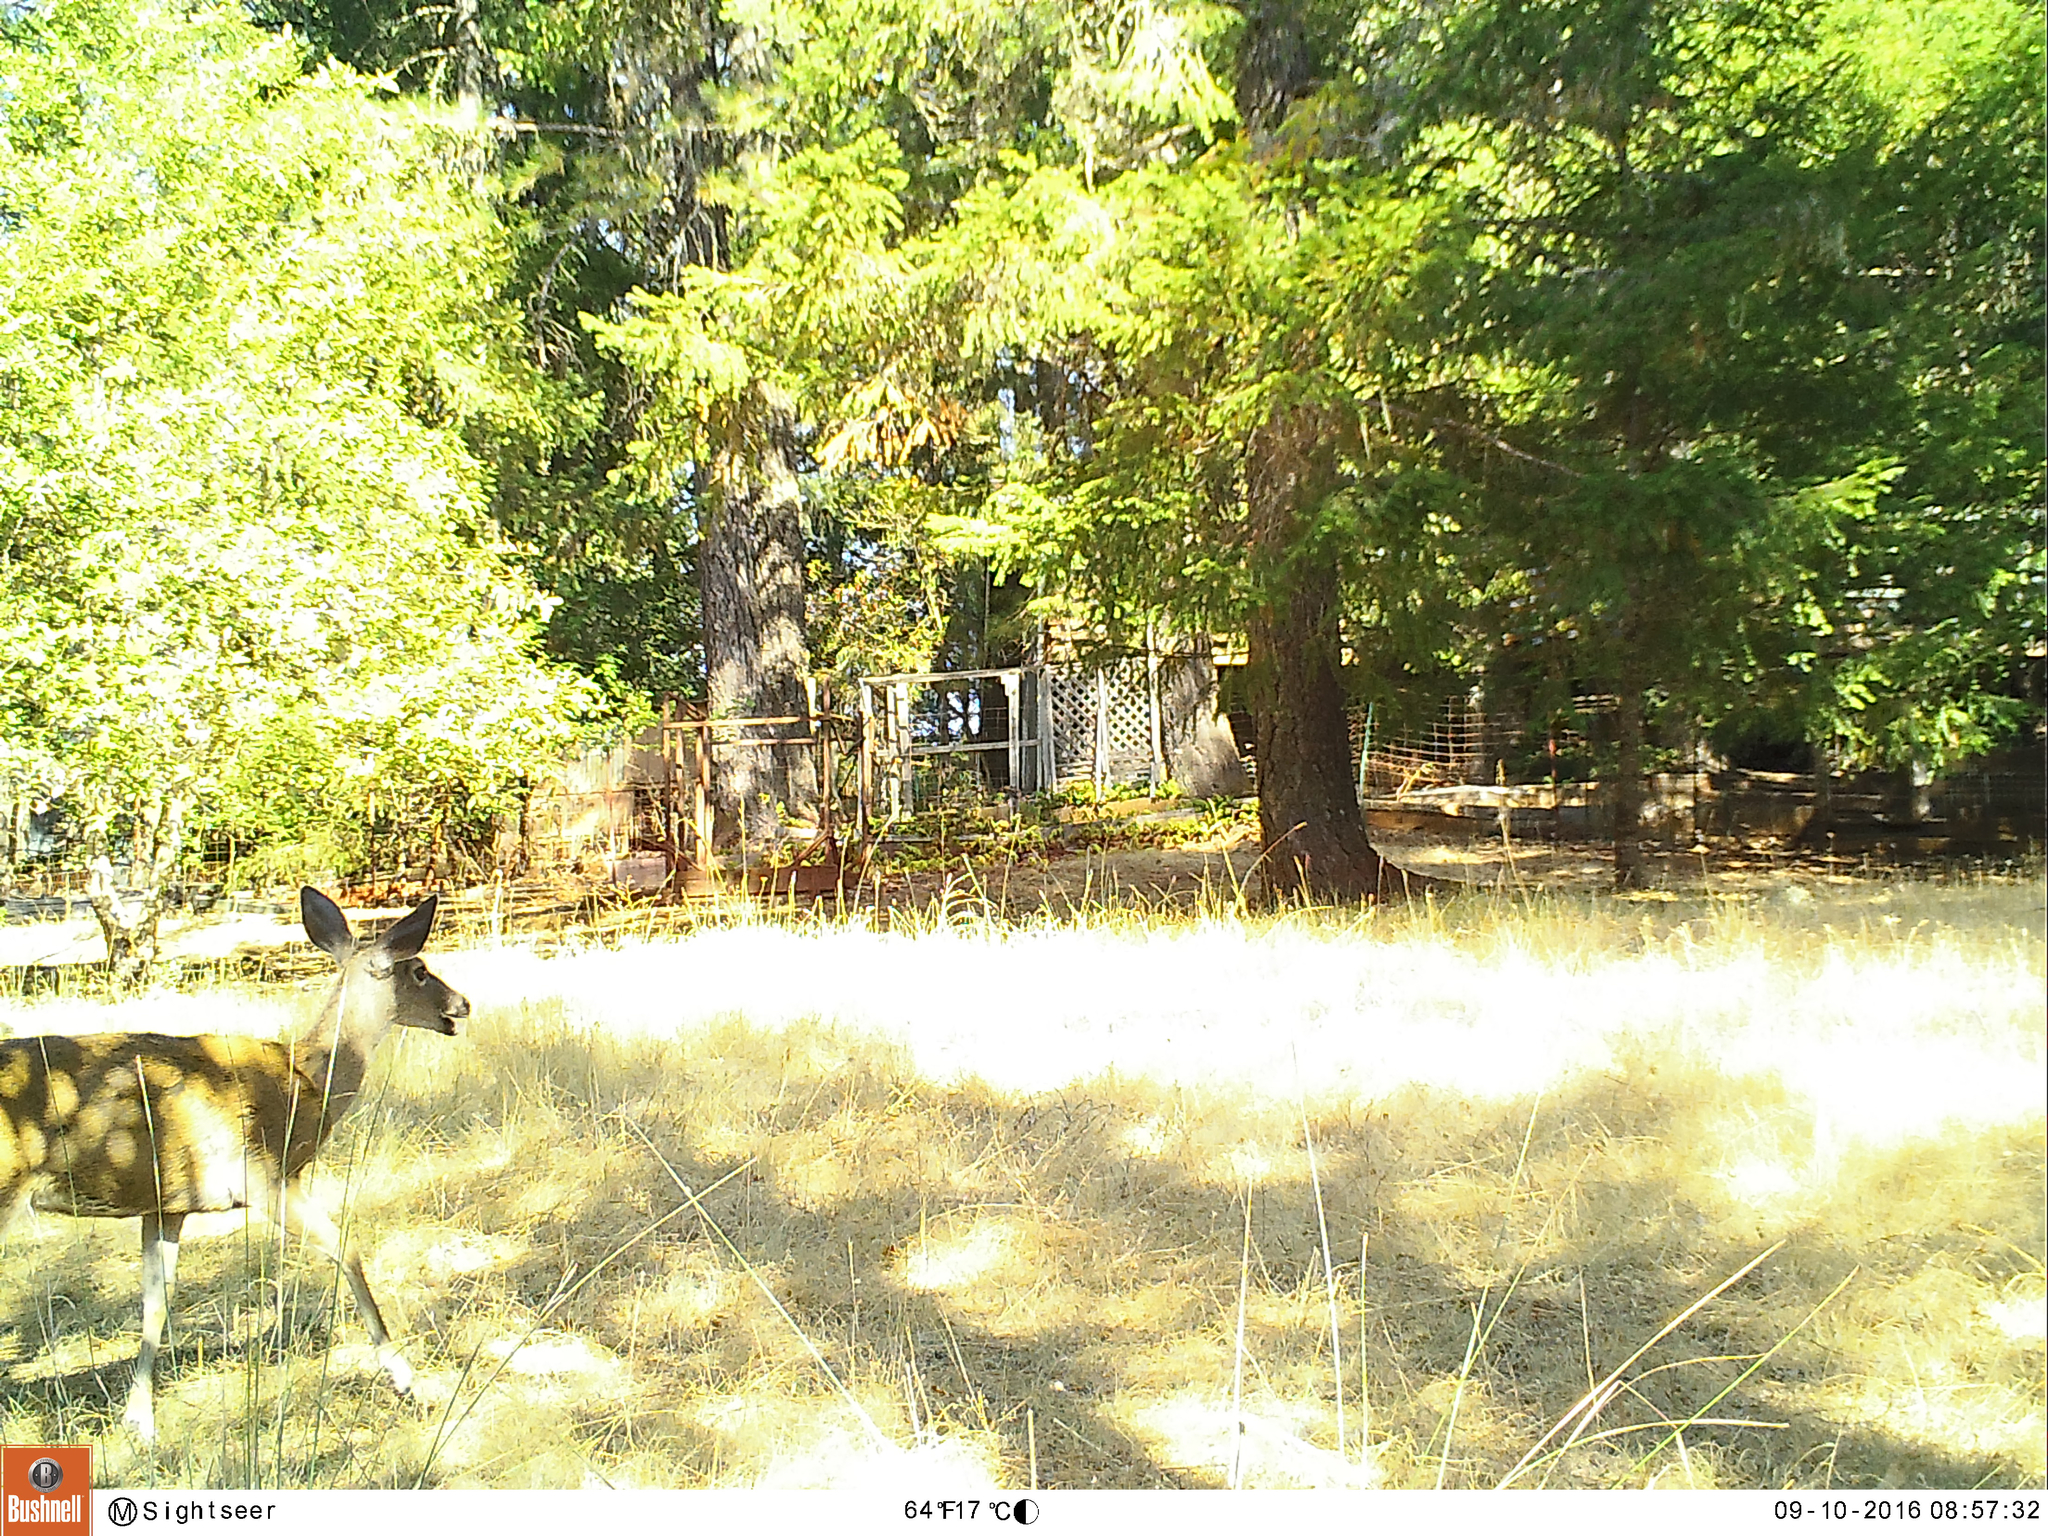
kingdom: Animalia
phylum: Chordata
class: Mammalia
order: Artiodactyla
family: Cervidae
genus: Odocoileus
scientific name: Odocoileus hemionus
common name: Mule deer
